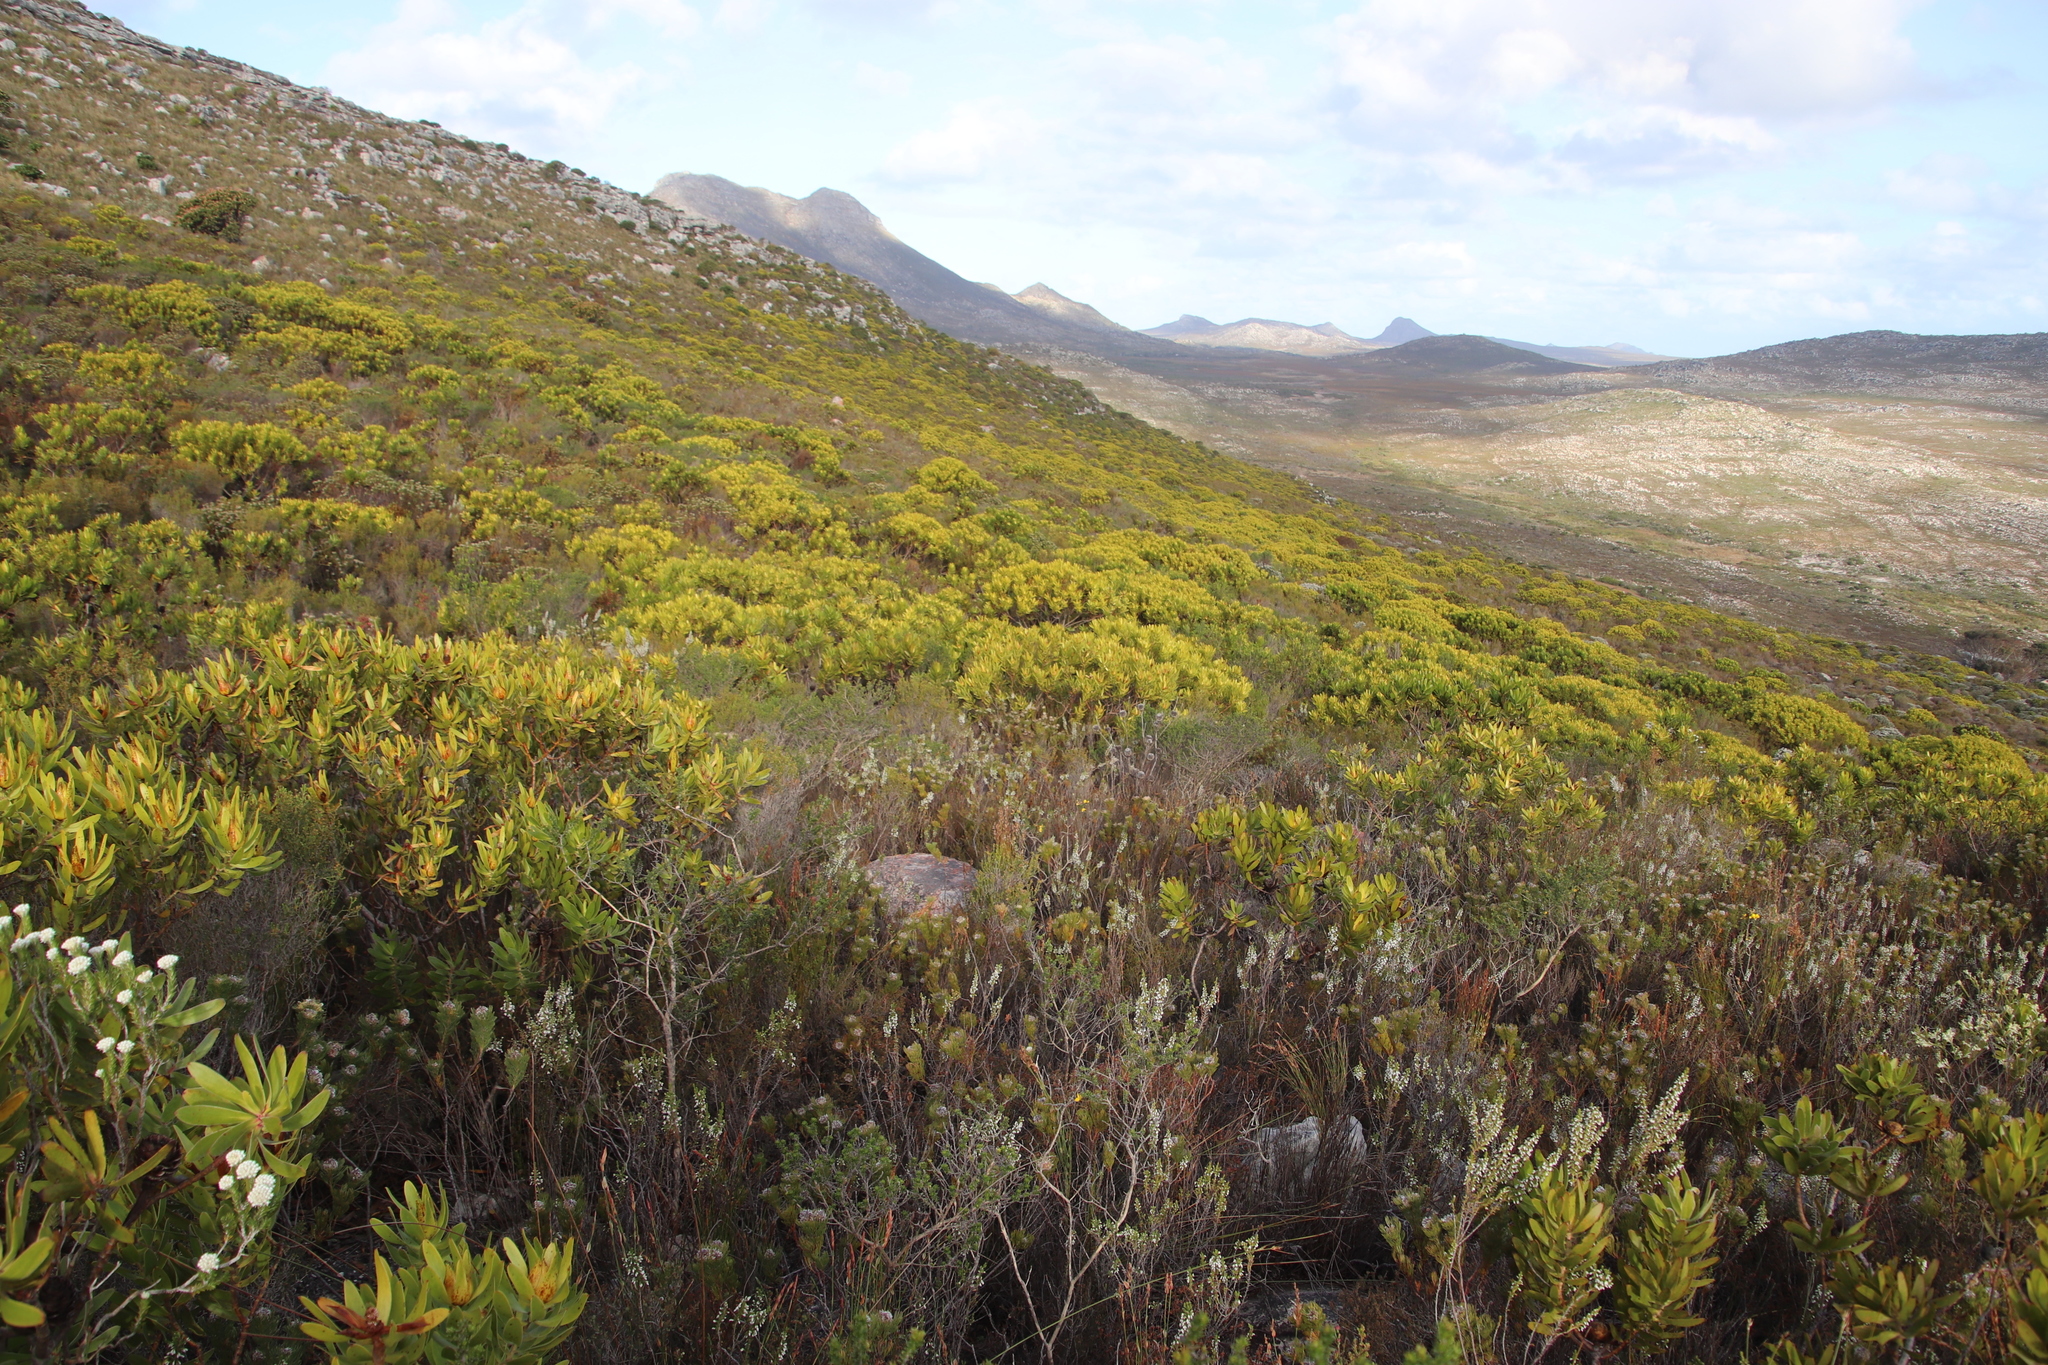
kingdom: Plantae
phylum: Tracheophyta
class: Magnoliopsida
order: Proteales
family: Proteaceae
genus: Leucadendron
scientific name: Leucadendron laureolum
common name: Golden sunshinebush
